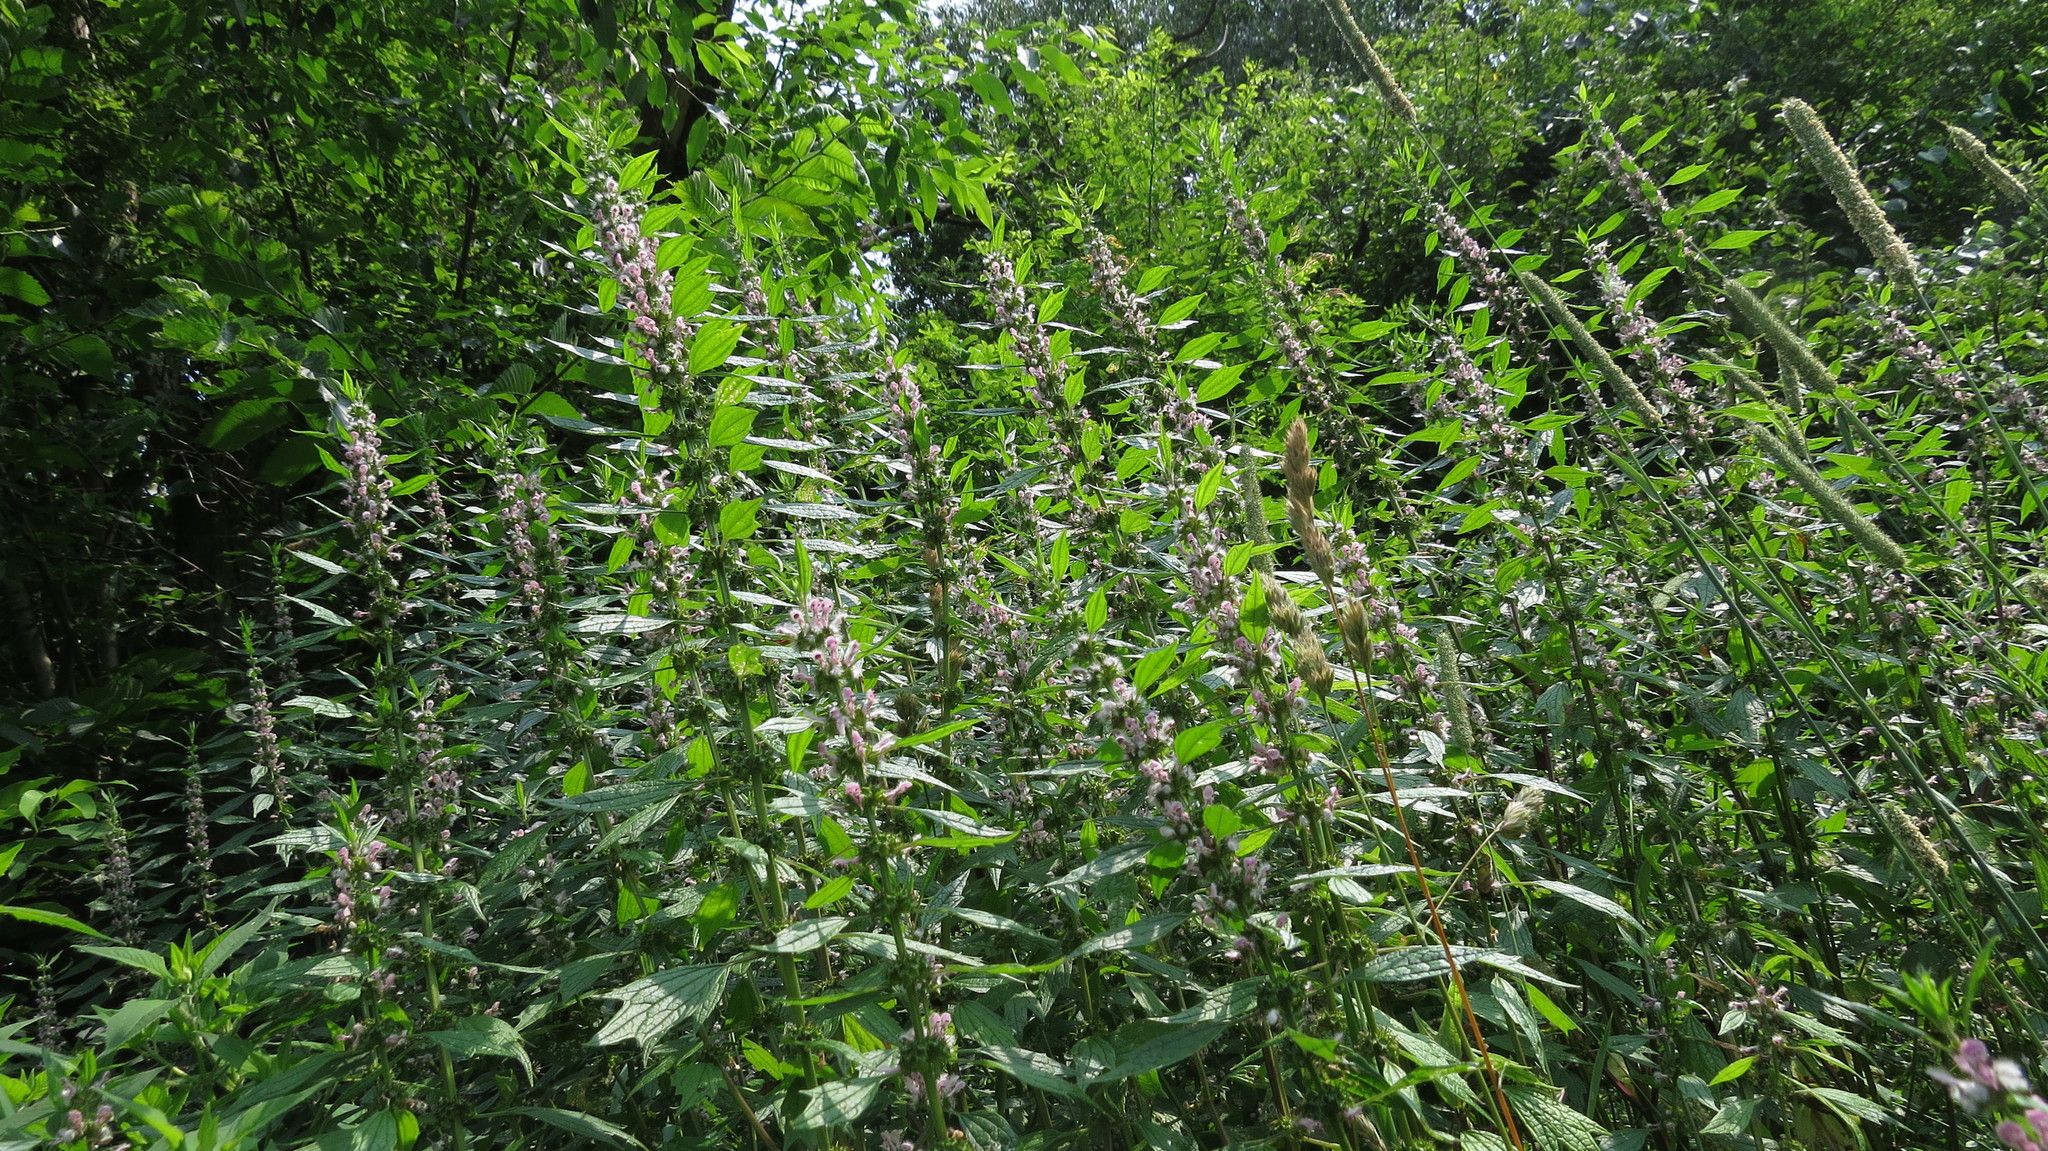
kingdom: Plantae
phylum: Tracheophyta
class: Magnoliopsida
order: Lamiales
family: Lamiaceae
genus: Leonurus
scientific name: Leonurus cardiaca
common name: Motherwort
